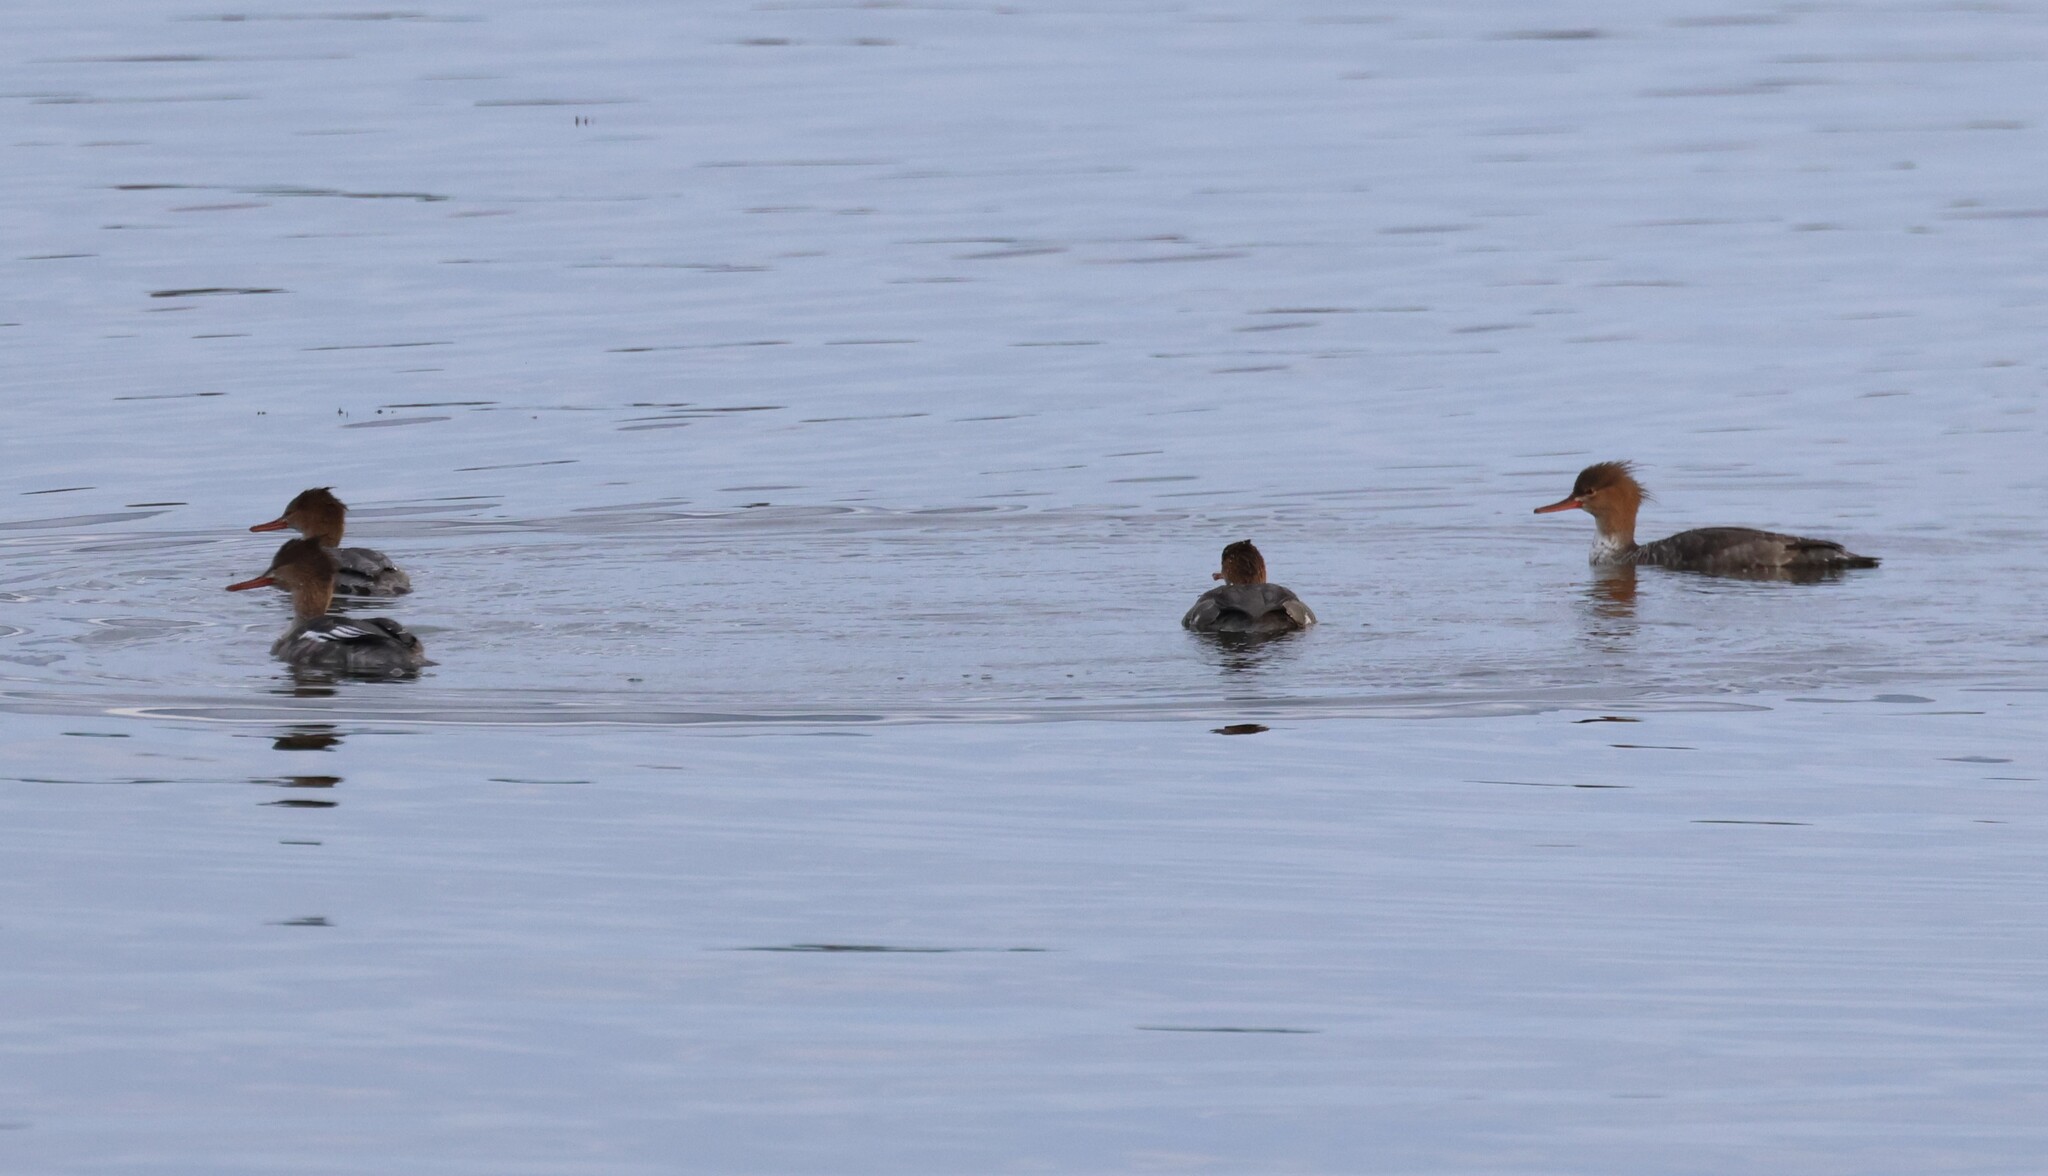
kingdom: Animalia
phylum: Chordata
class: Aves
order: Anseriformes
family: Anatidae
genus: Mergus
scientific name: Mergus serrator
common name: Red-breasted merganser
